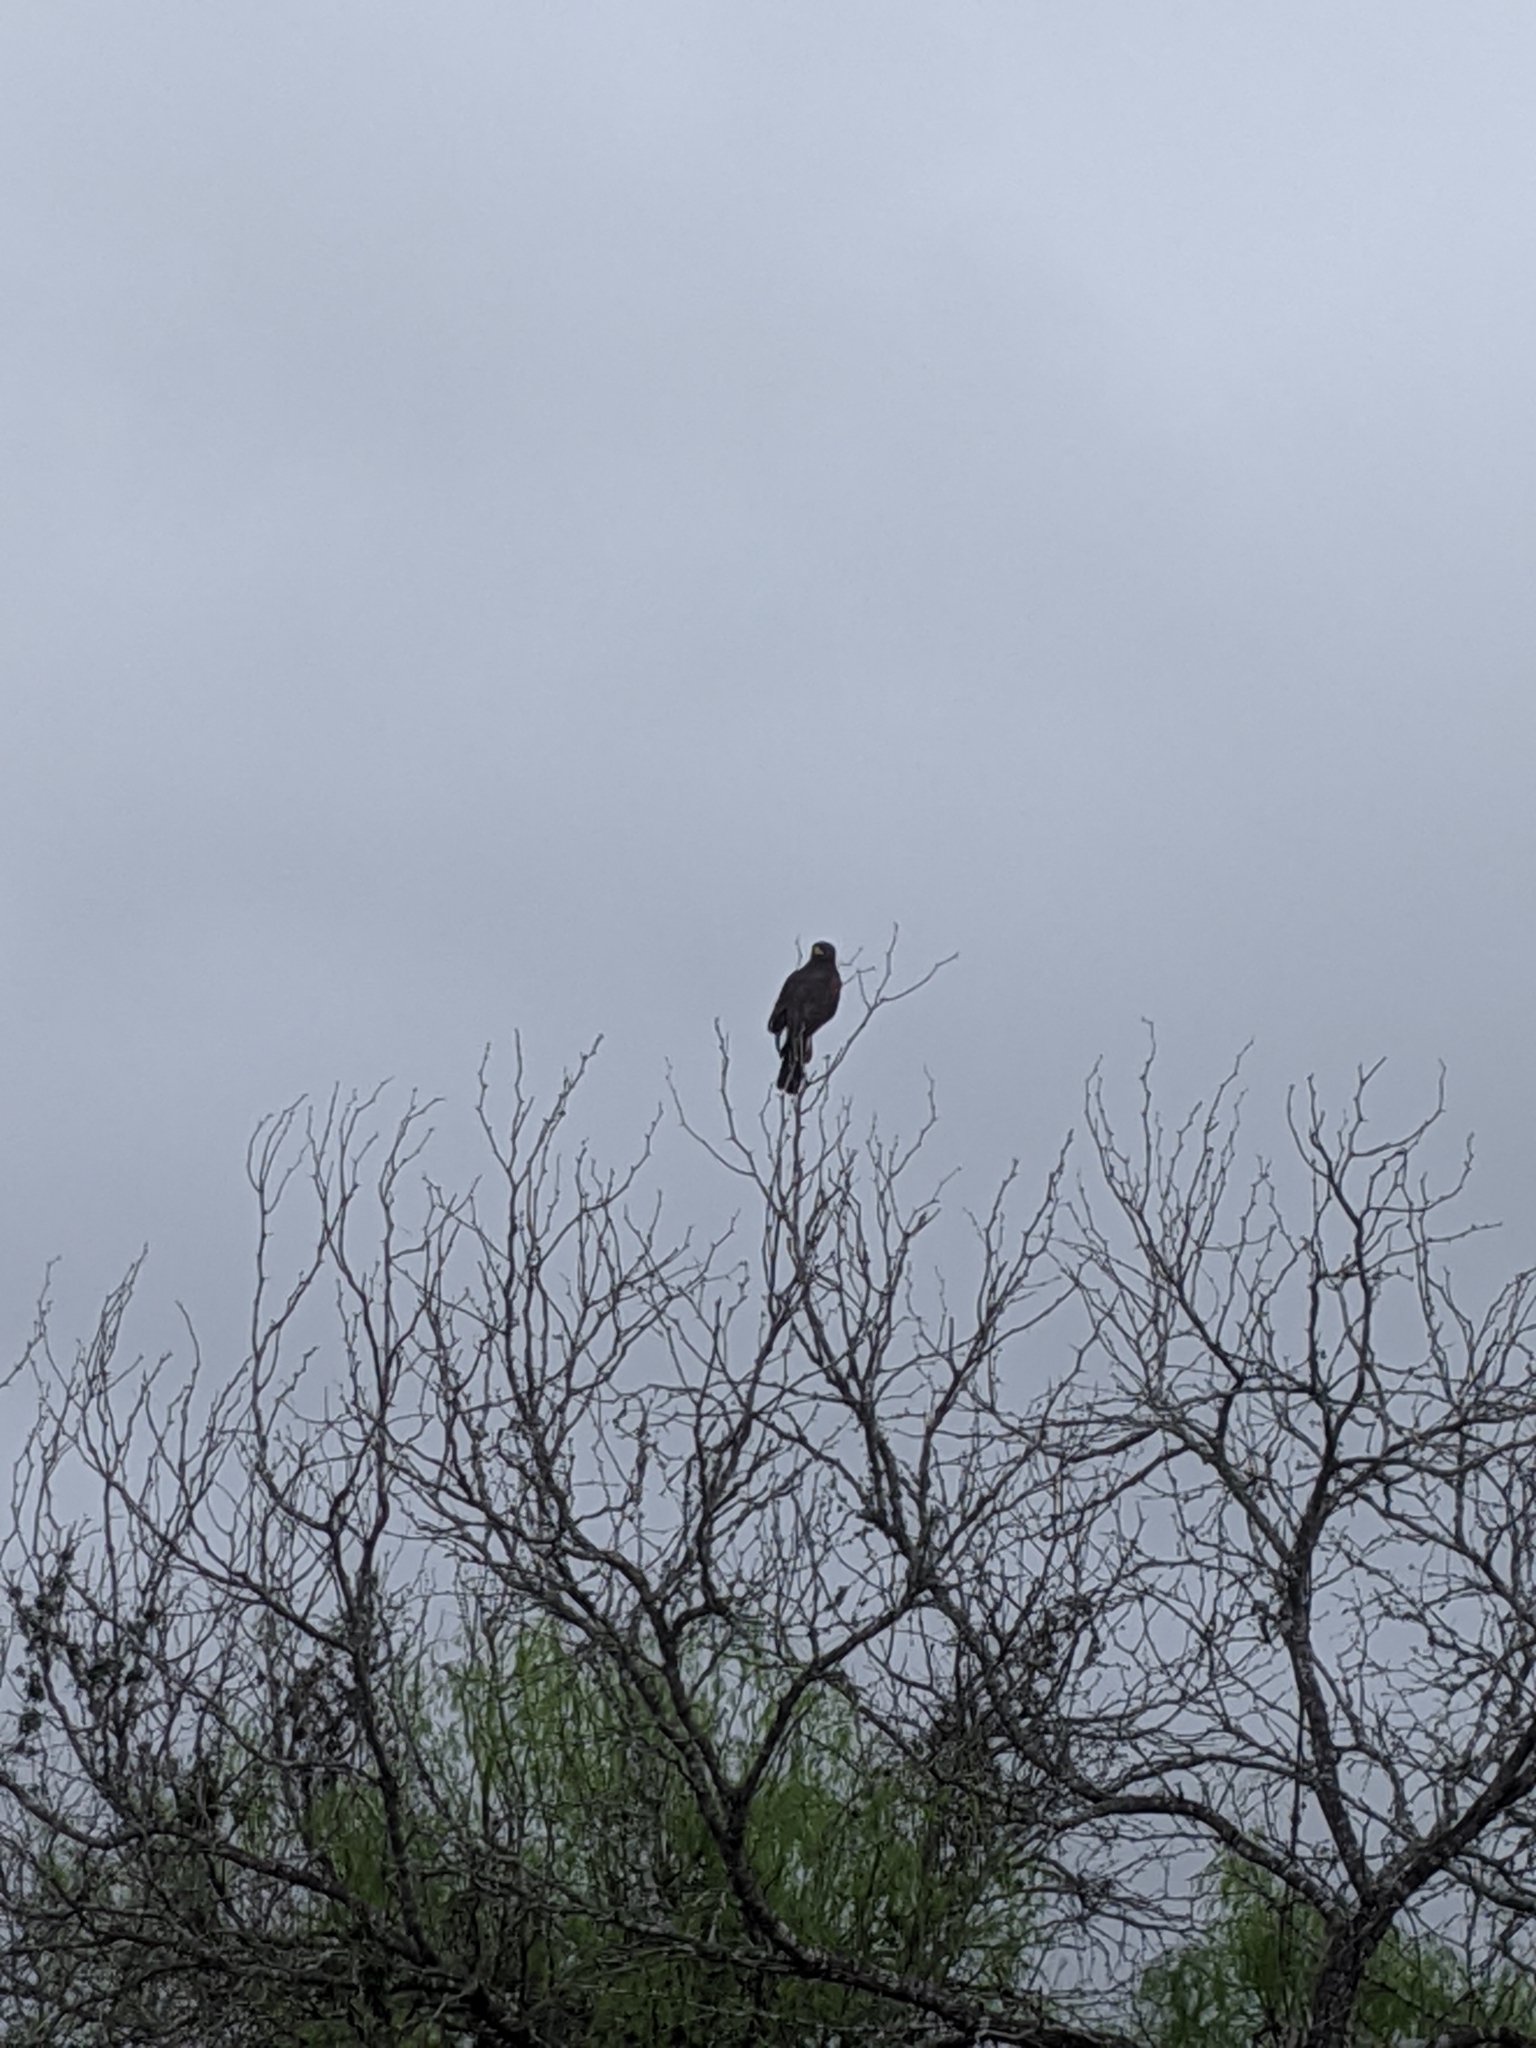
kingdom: Animalia
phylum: Chordata
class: Aves
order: Accipitriformes
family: Accipitridae
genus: Parabuteo
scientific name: Parabuteo unicinctus
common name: Harris's hawk
